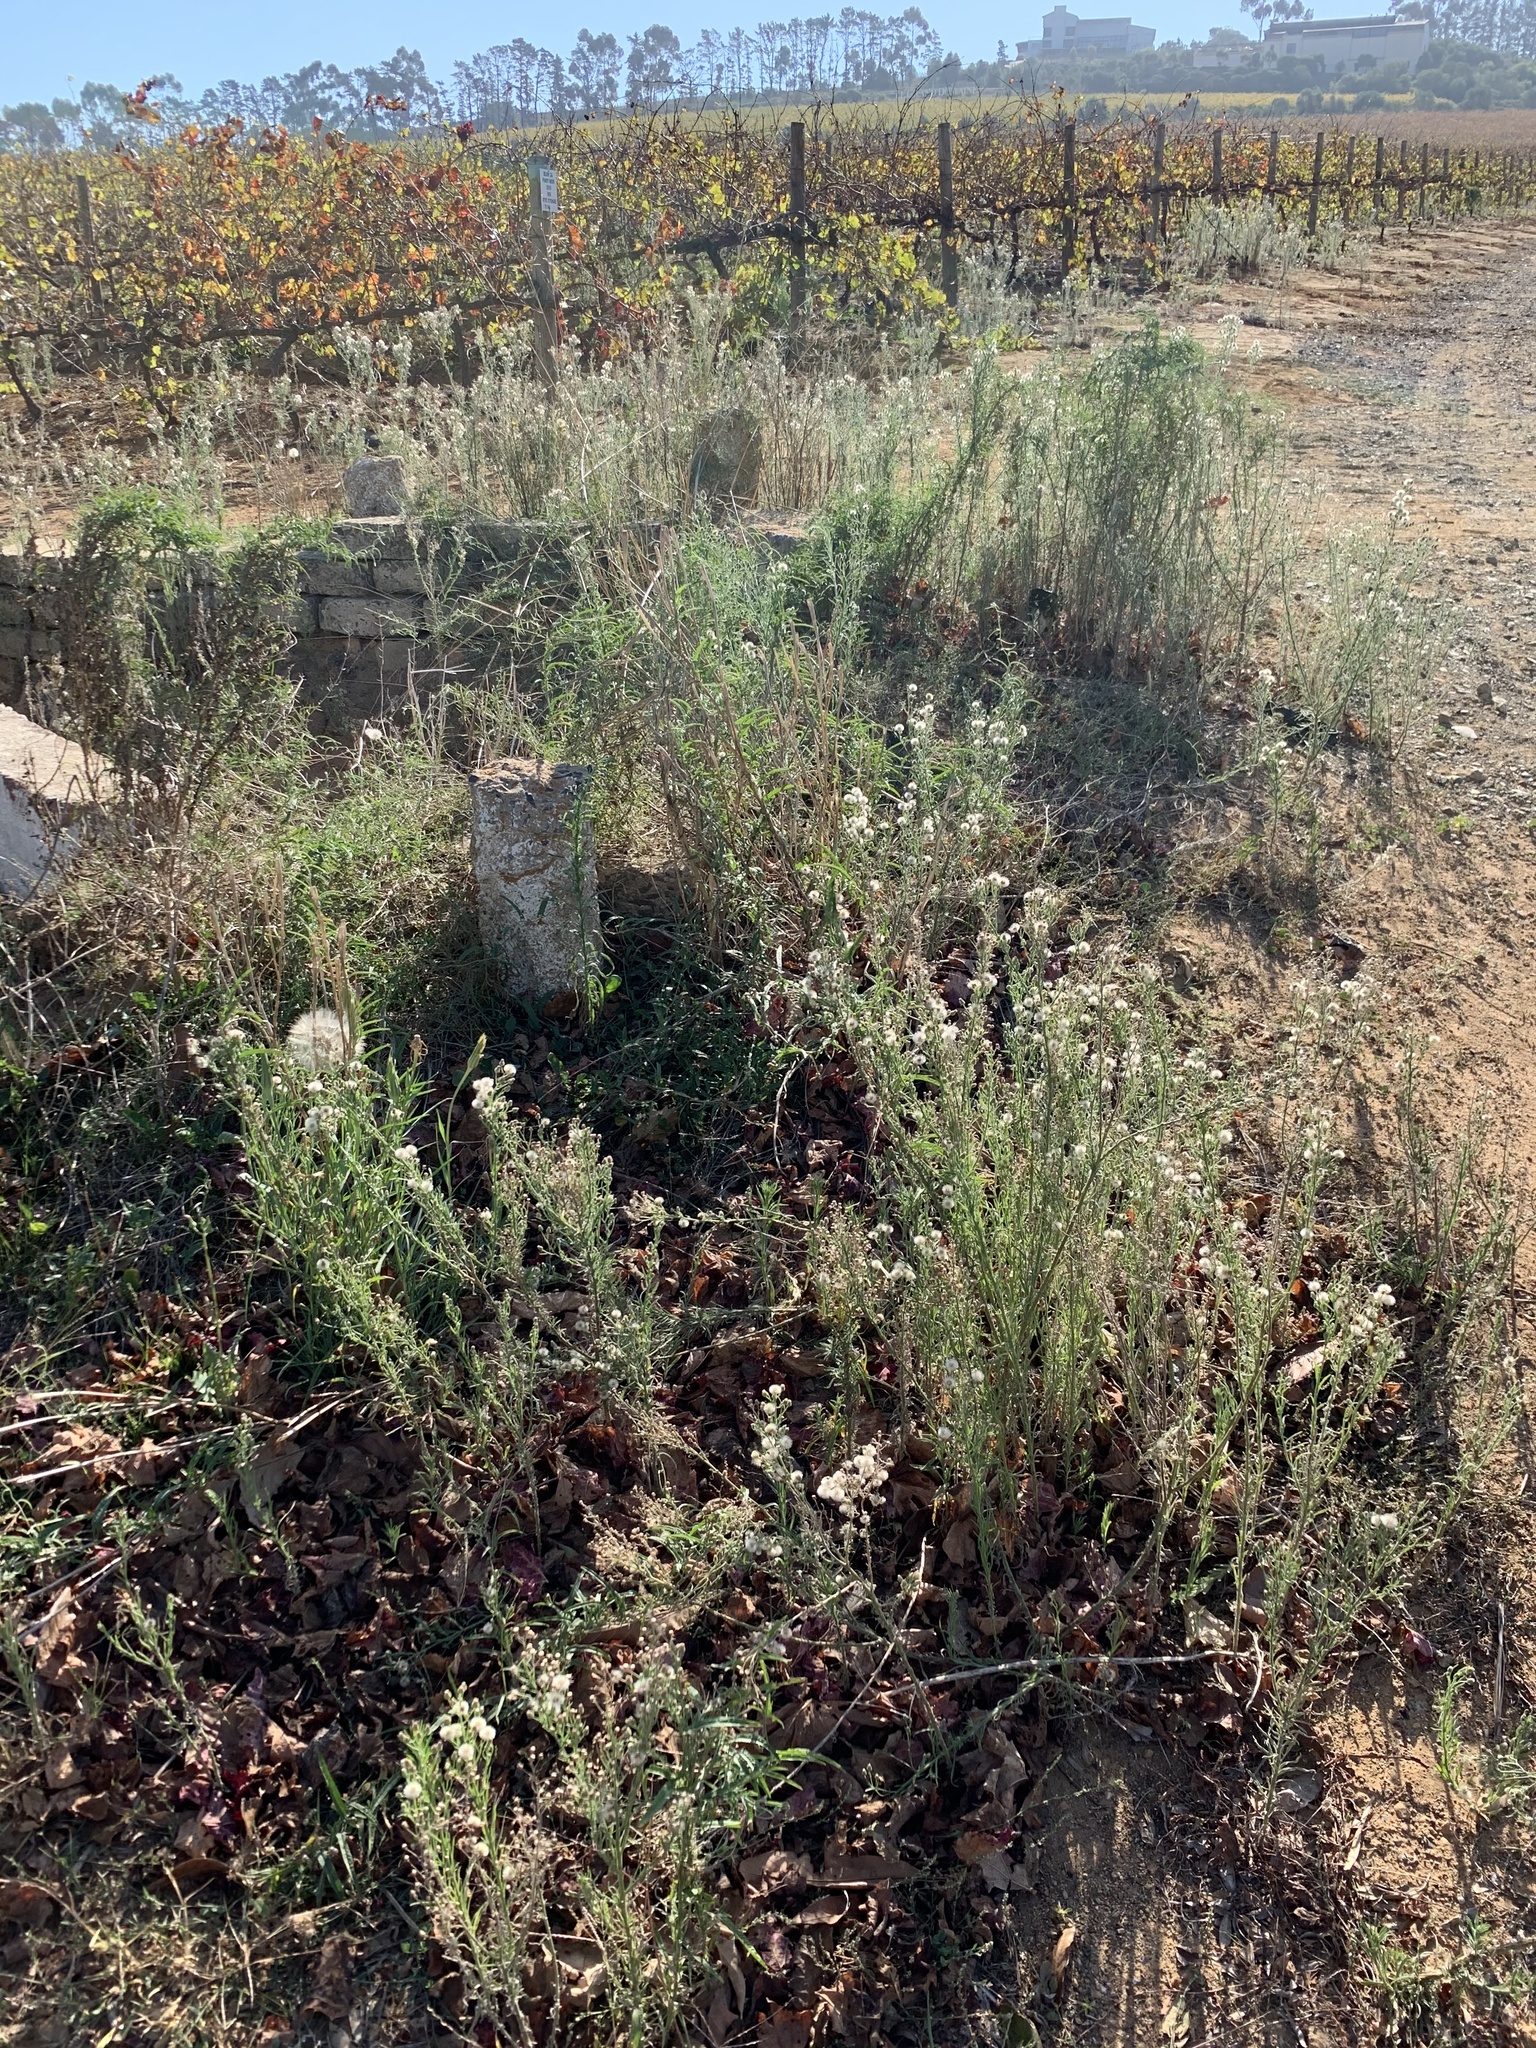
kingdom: Plantae
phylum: Tracheophyta
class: Magnoliopsida
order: Asterales
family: Asteraceae
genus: Erigeron
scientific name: Erigeron bonariensis
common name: Argentine fleabane
